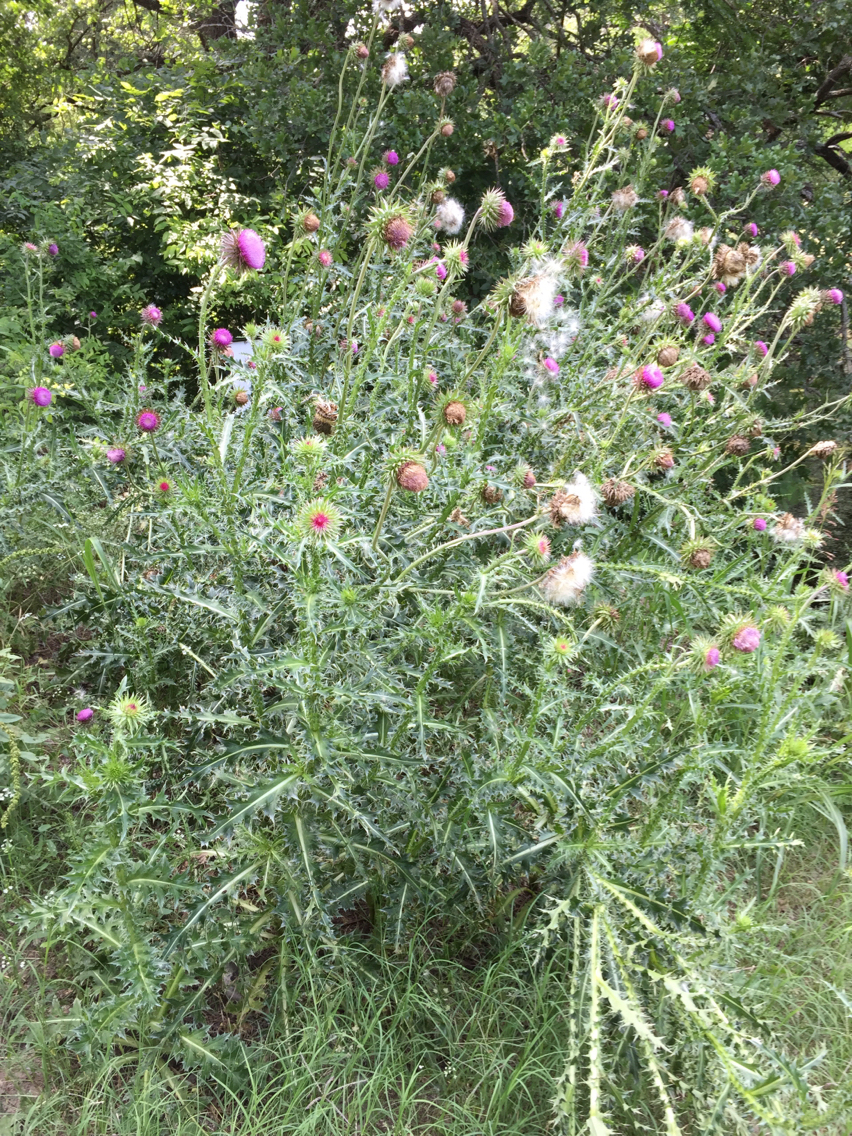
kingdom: Plantae
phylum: Tracheophyta
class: Magnoliopsida
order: Asterales
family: Asteraceae
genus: Carduus
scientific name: Carduus nutans
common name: Musk thistle
